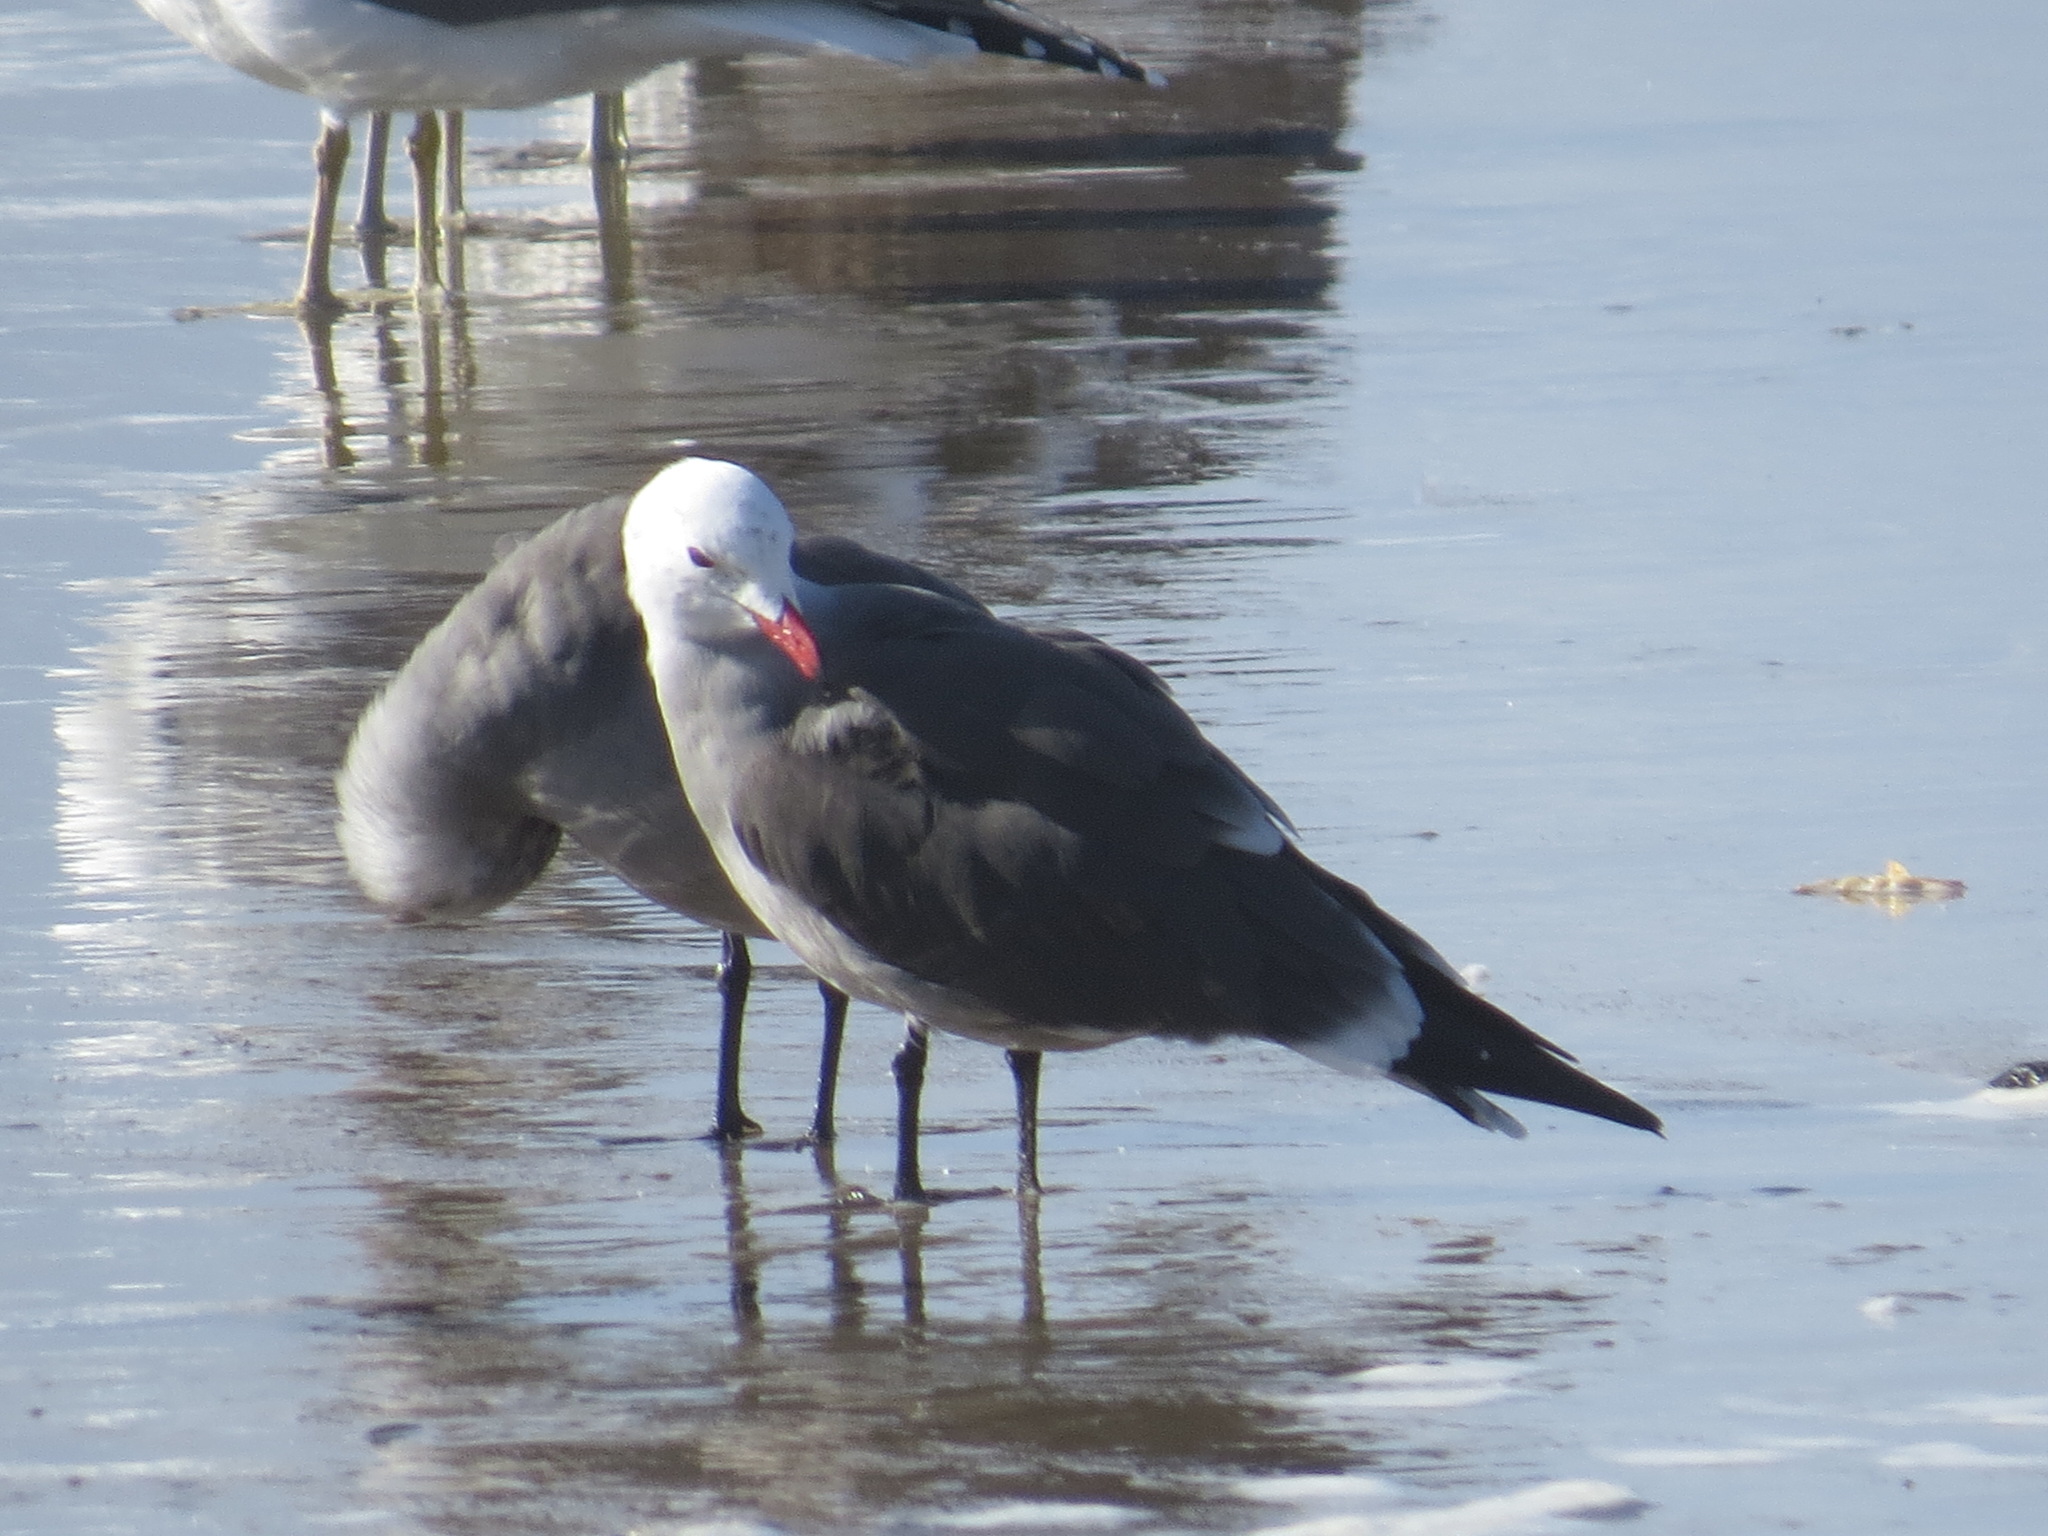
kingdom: Animalia
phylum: Chordata
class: Aves
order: Charadriiformes
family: Laridae
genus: Larus
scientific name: Larus heermanni
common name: Heermann's gull
